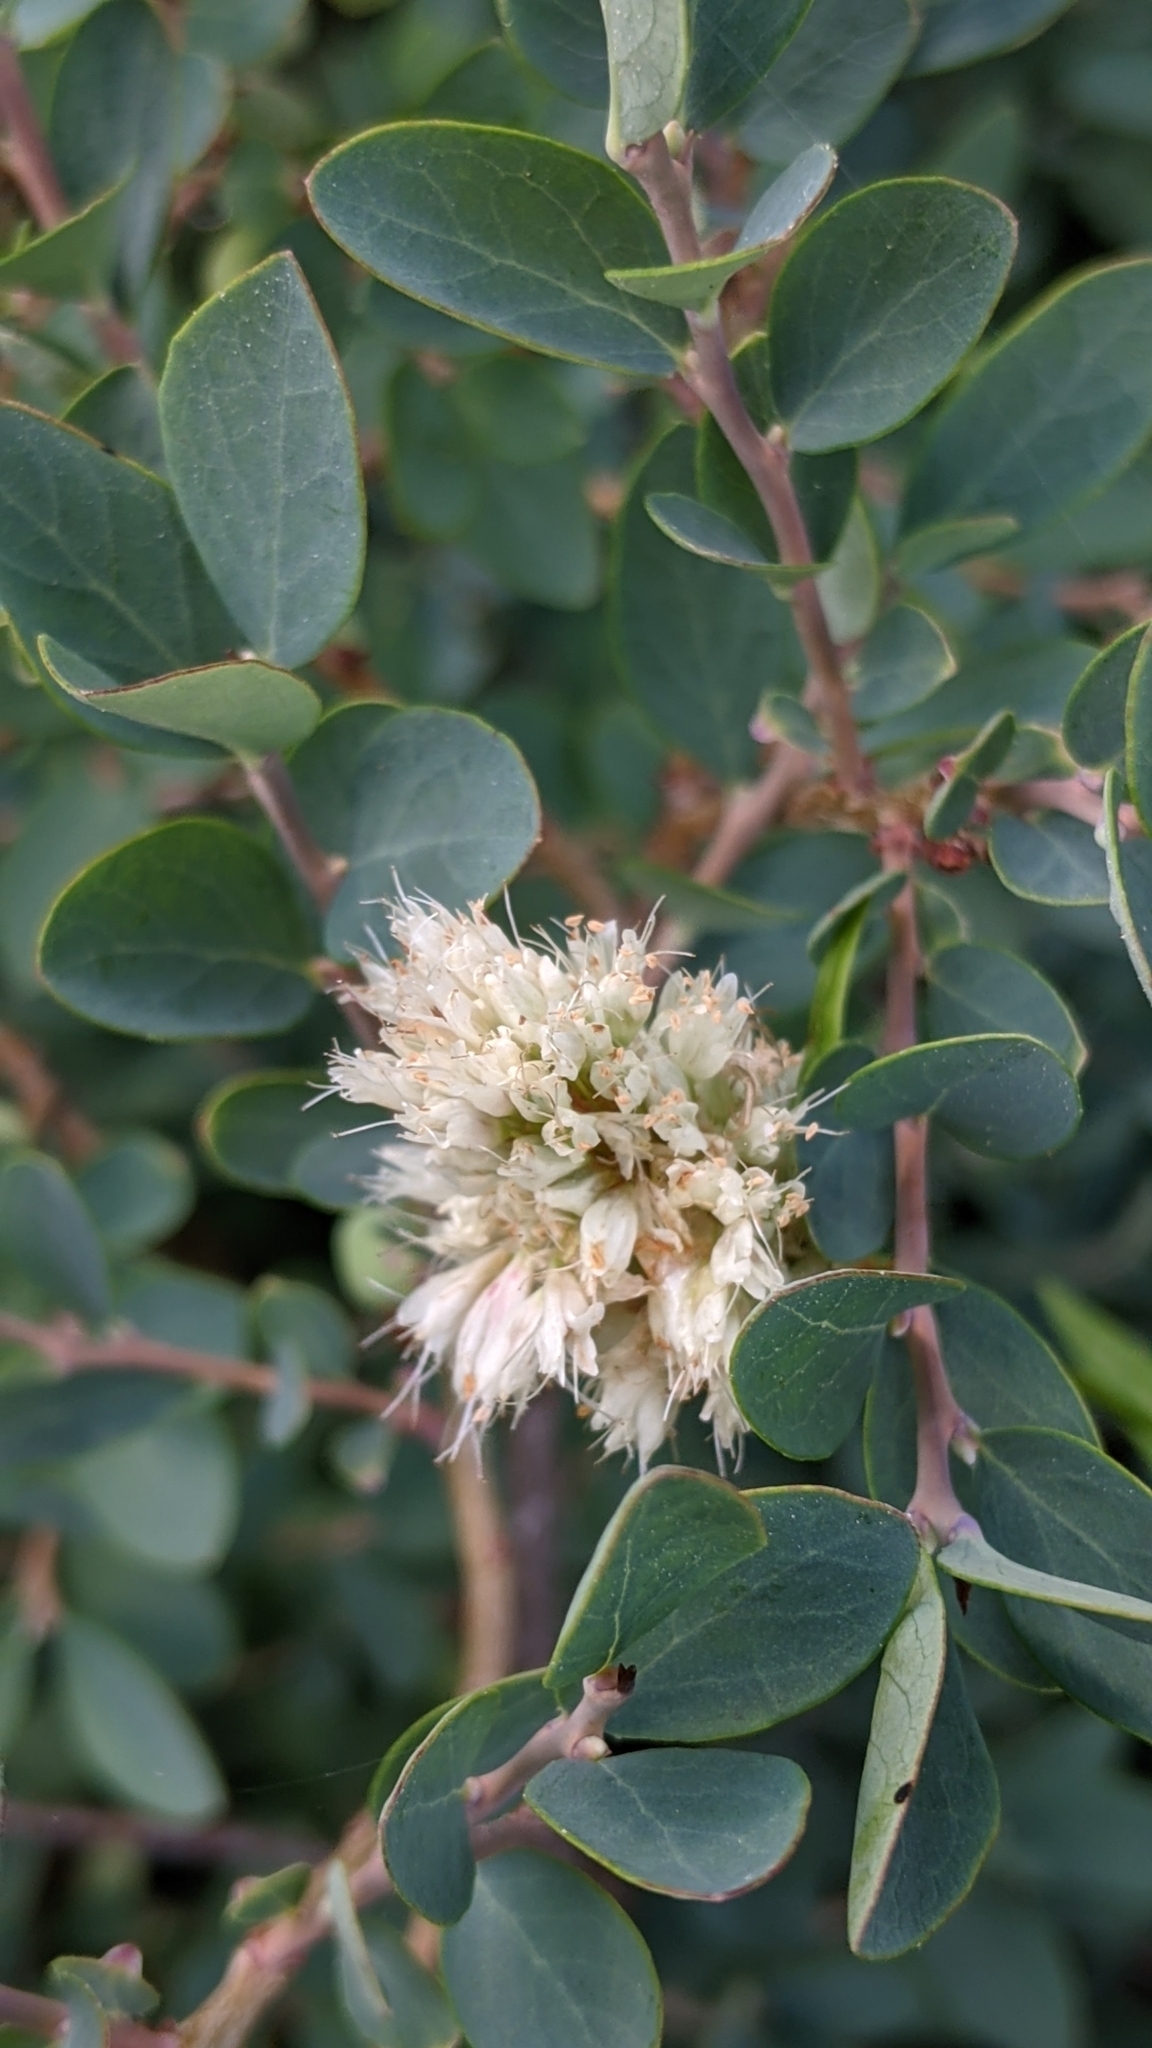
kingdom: Plantae
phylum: Tracheophyta
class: Magnoliopsida
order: Caryophyllales
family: Polygonaceae
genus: Bistorta
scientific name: Bistorta bistortoides
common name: American bistort
